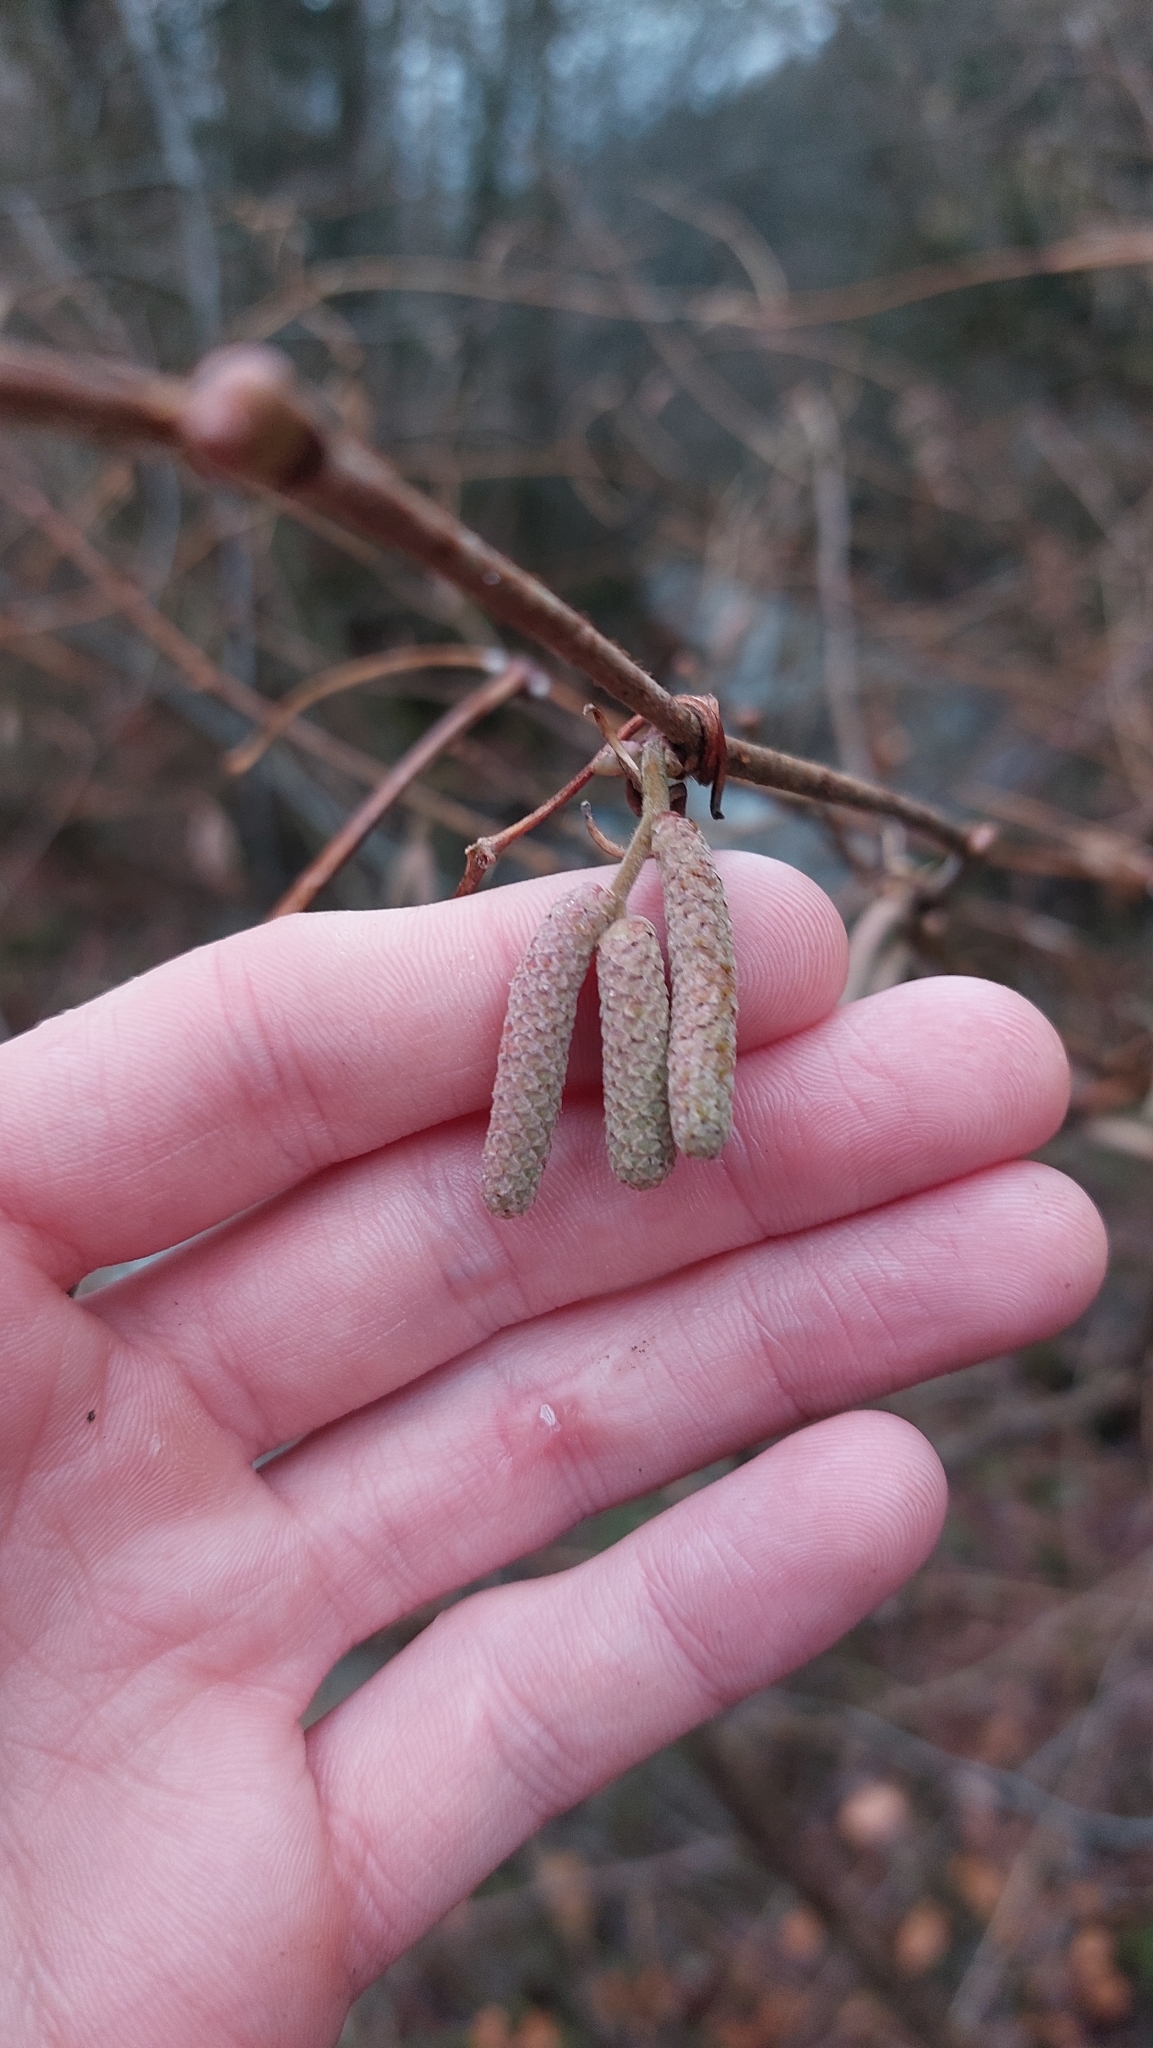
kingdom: Plantae
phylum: Tracheophyta
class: Magnoliopsida
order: Fagales
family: Betulaceae
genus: Corylus
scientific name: Corylus avellana
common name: European hazel
